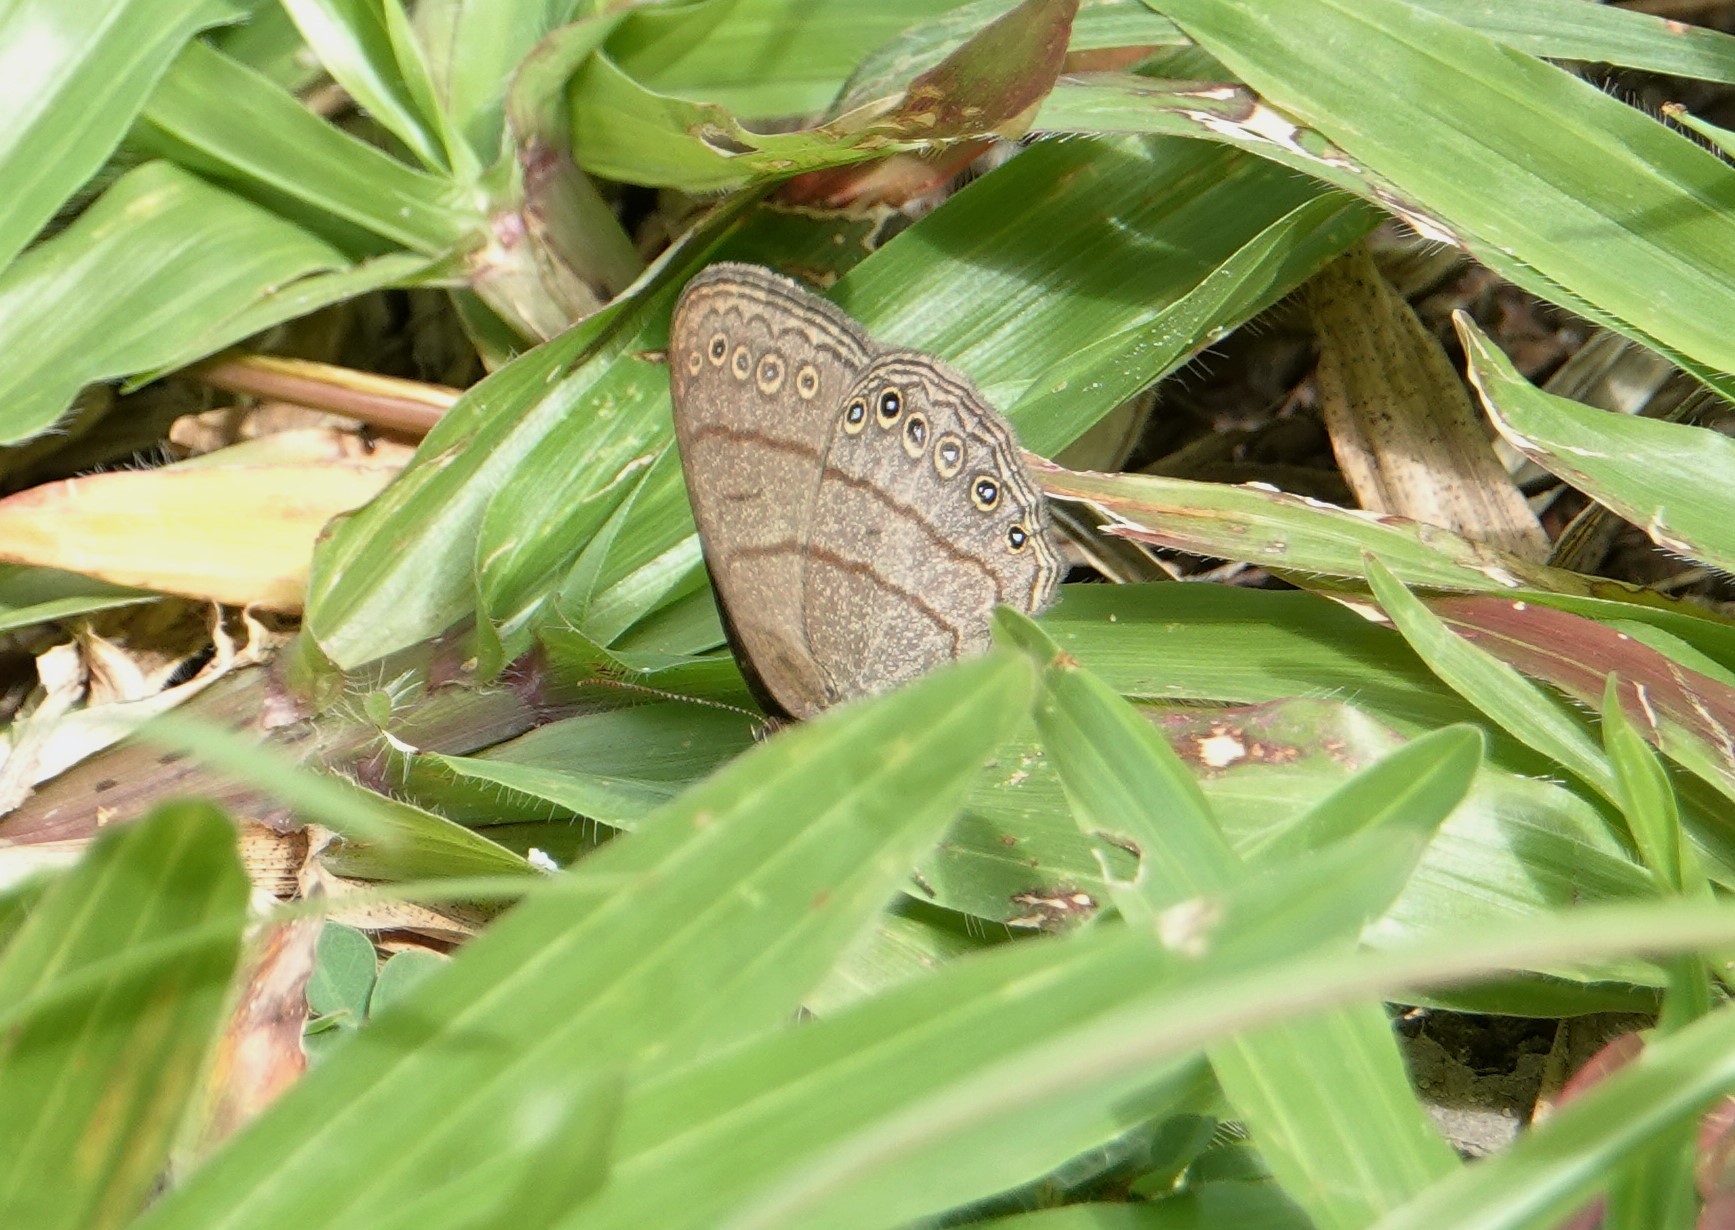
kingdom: Animalia
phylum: Arthropoda
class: Insecta
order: Lepidoptera
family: Nymphalidae
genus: Hermeuptychia
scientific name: Hermeuptychia hermes
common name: Hermes satyr
